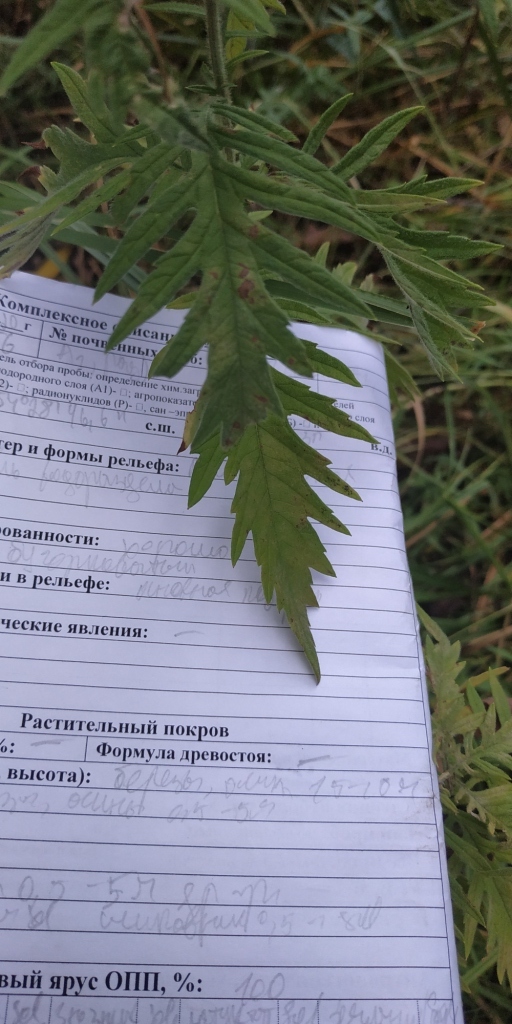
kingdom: Plantae
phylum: Tracheophyta
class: Magnoliopsida
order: Lamiales
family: Lamiaceae
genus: Lycopus
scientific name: Lycopus exaltatus
